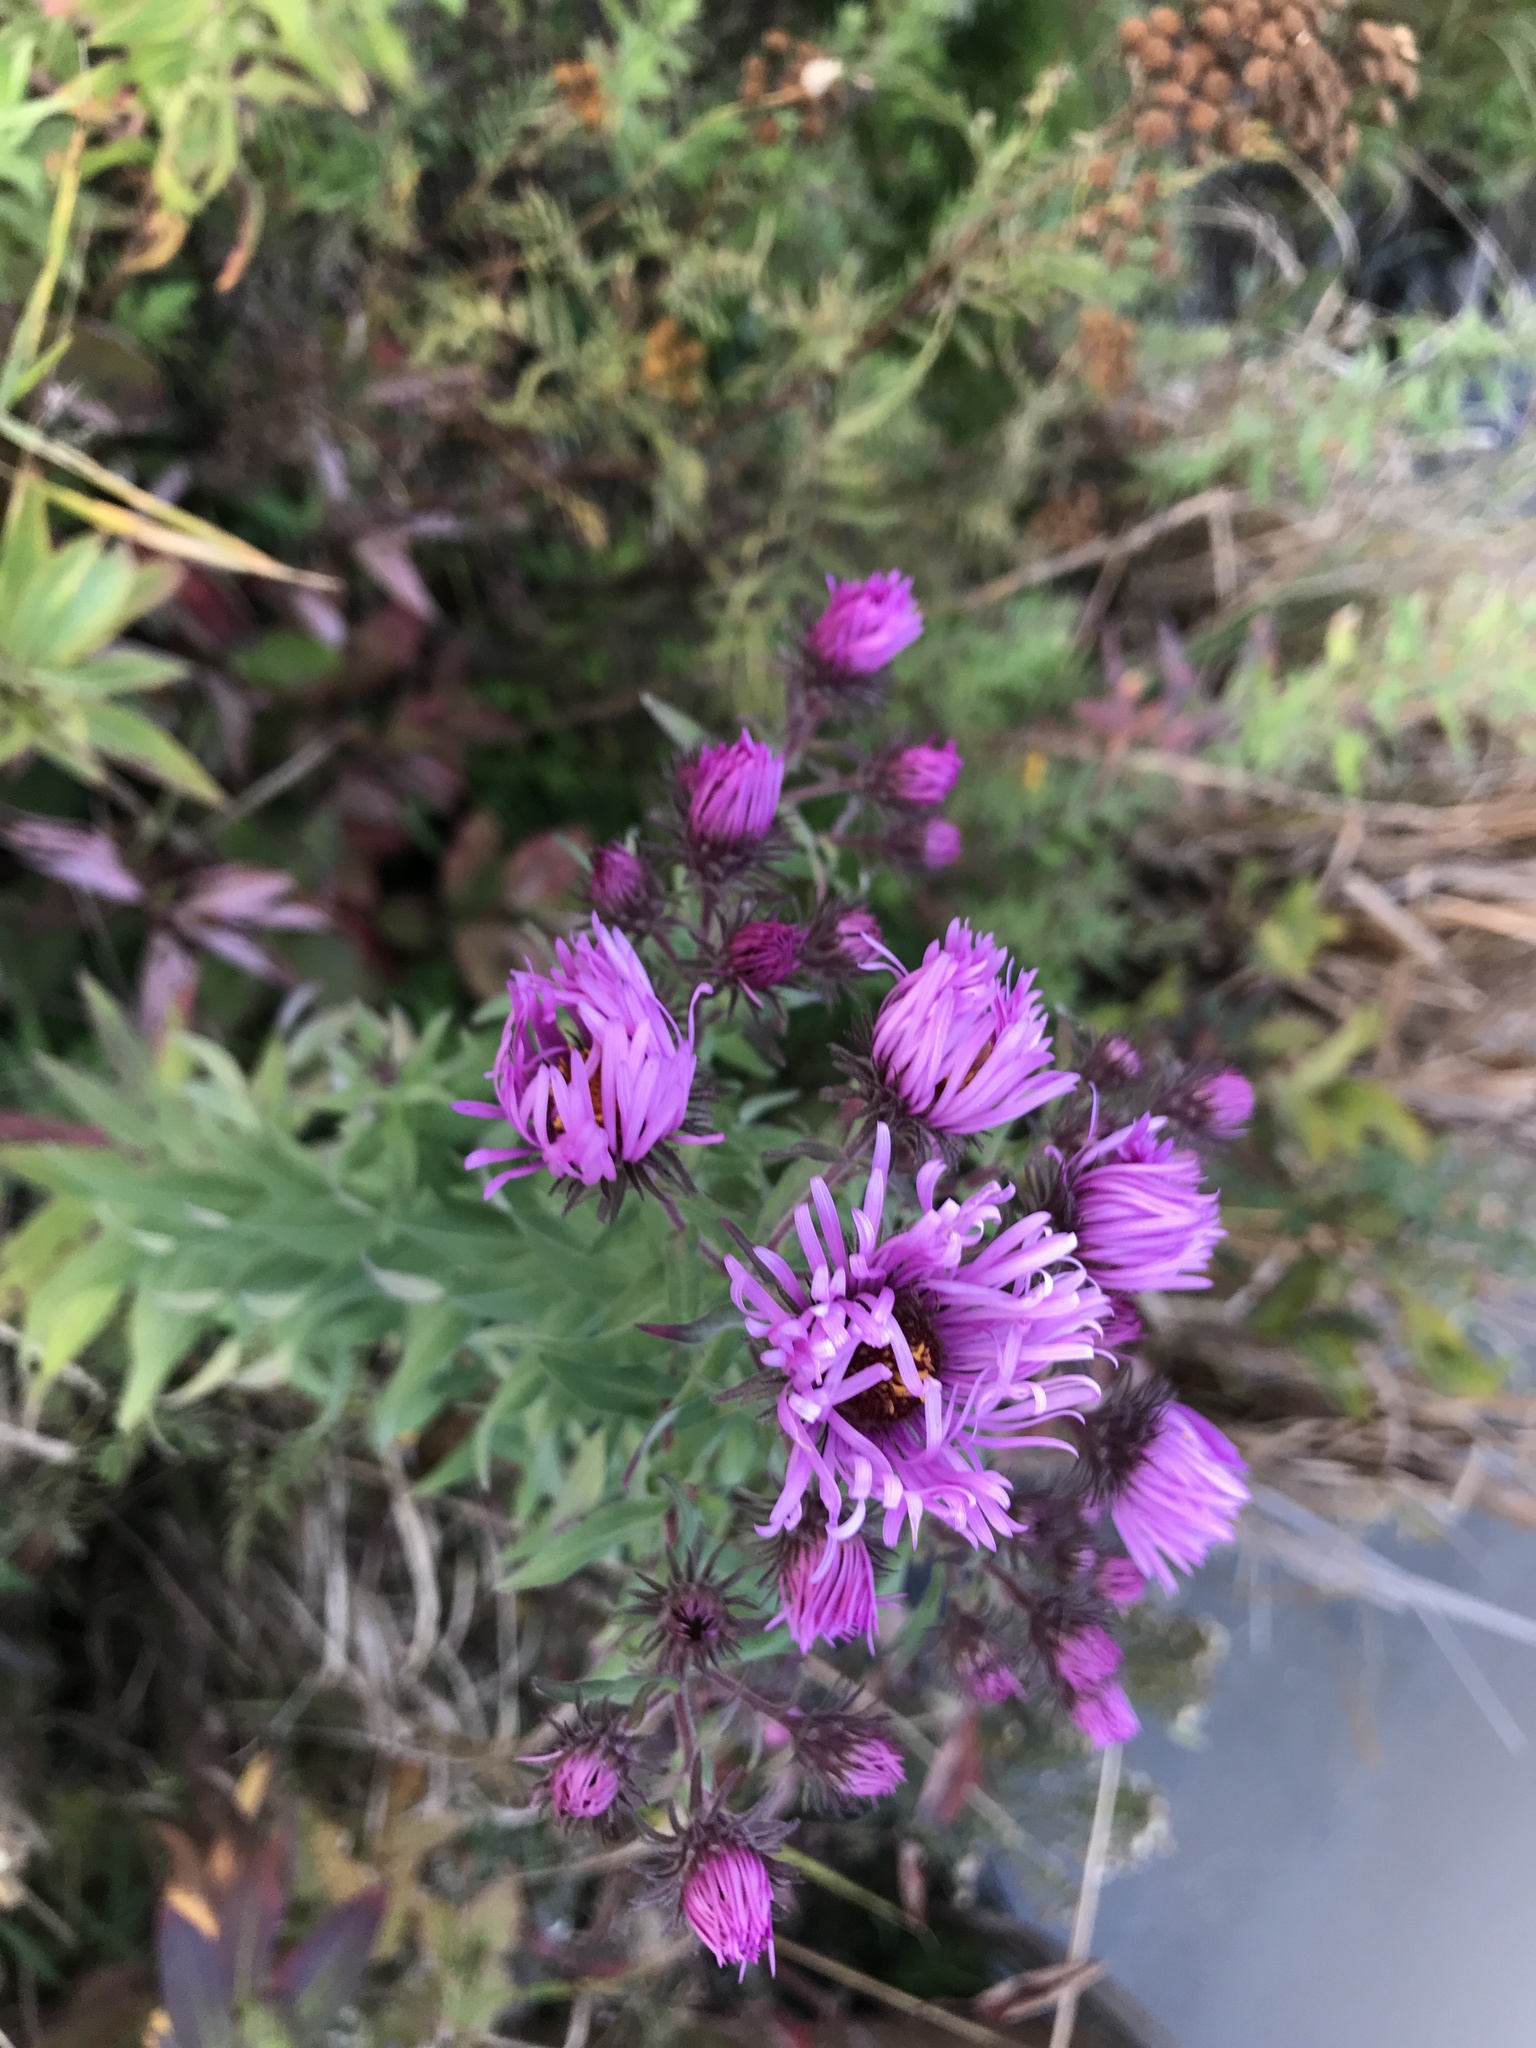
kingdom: Plantae
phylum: Tracheophyta
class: Magnoliopsida
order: Asterales
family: Asteraceae
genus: Symphyotrichum
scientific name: Symphyotrichum novae-angliae
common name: Michaelmas daisy
